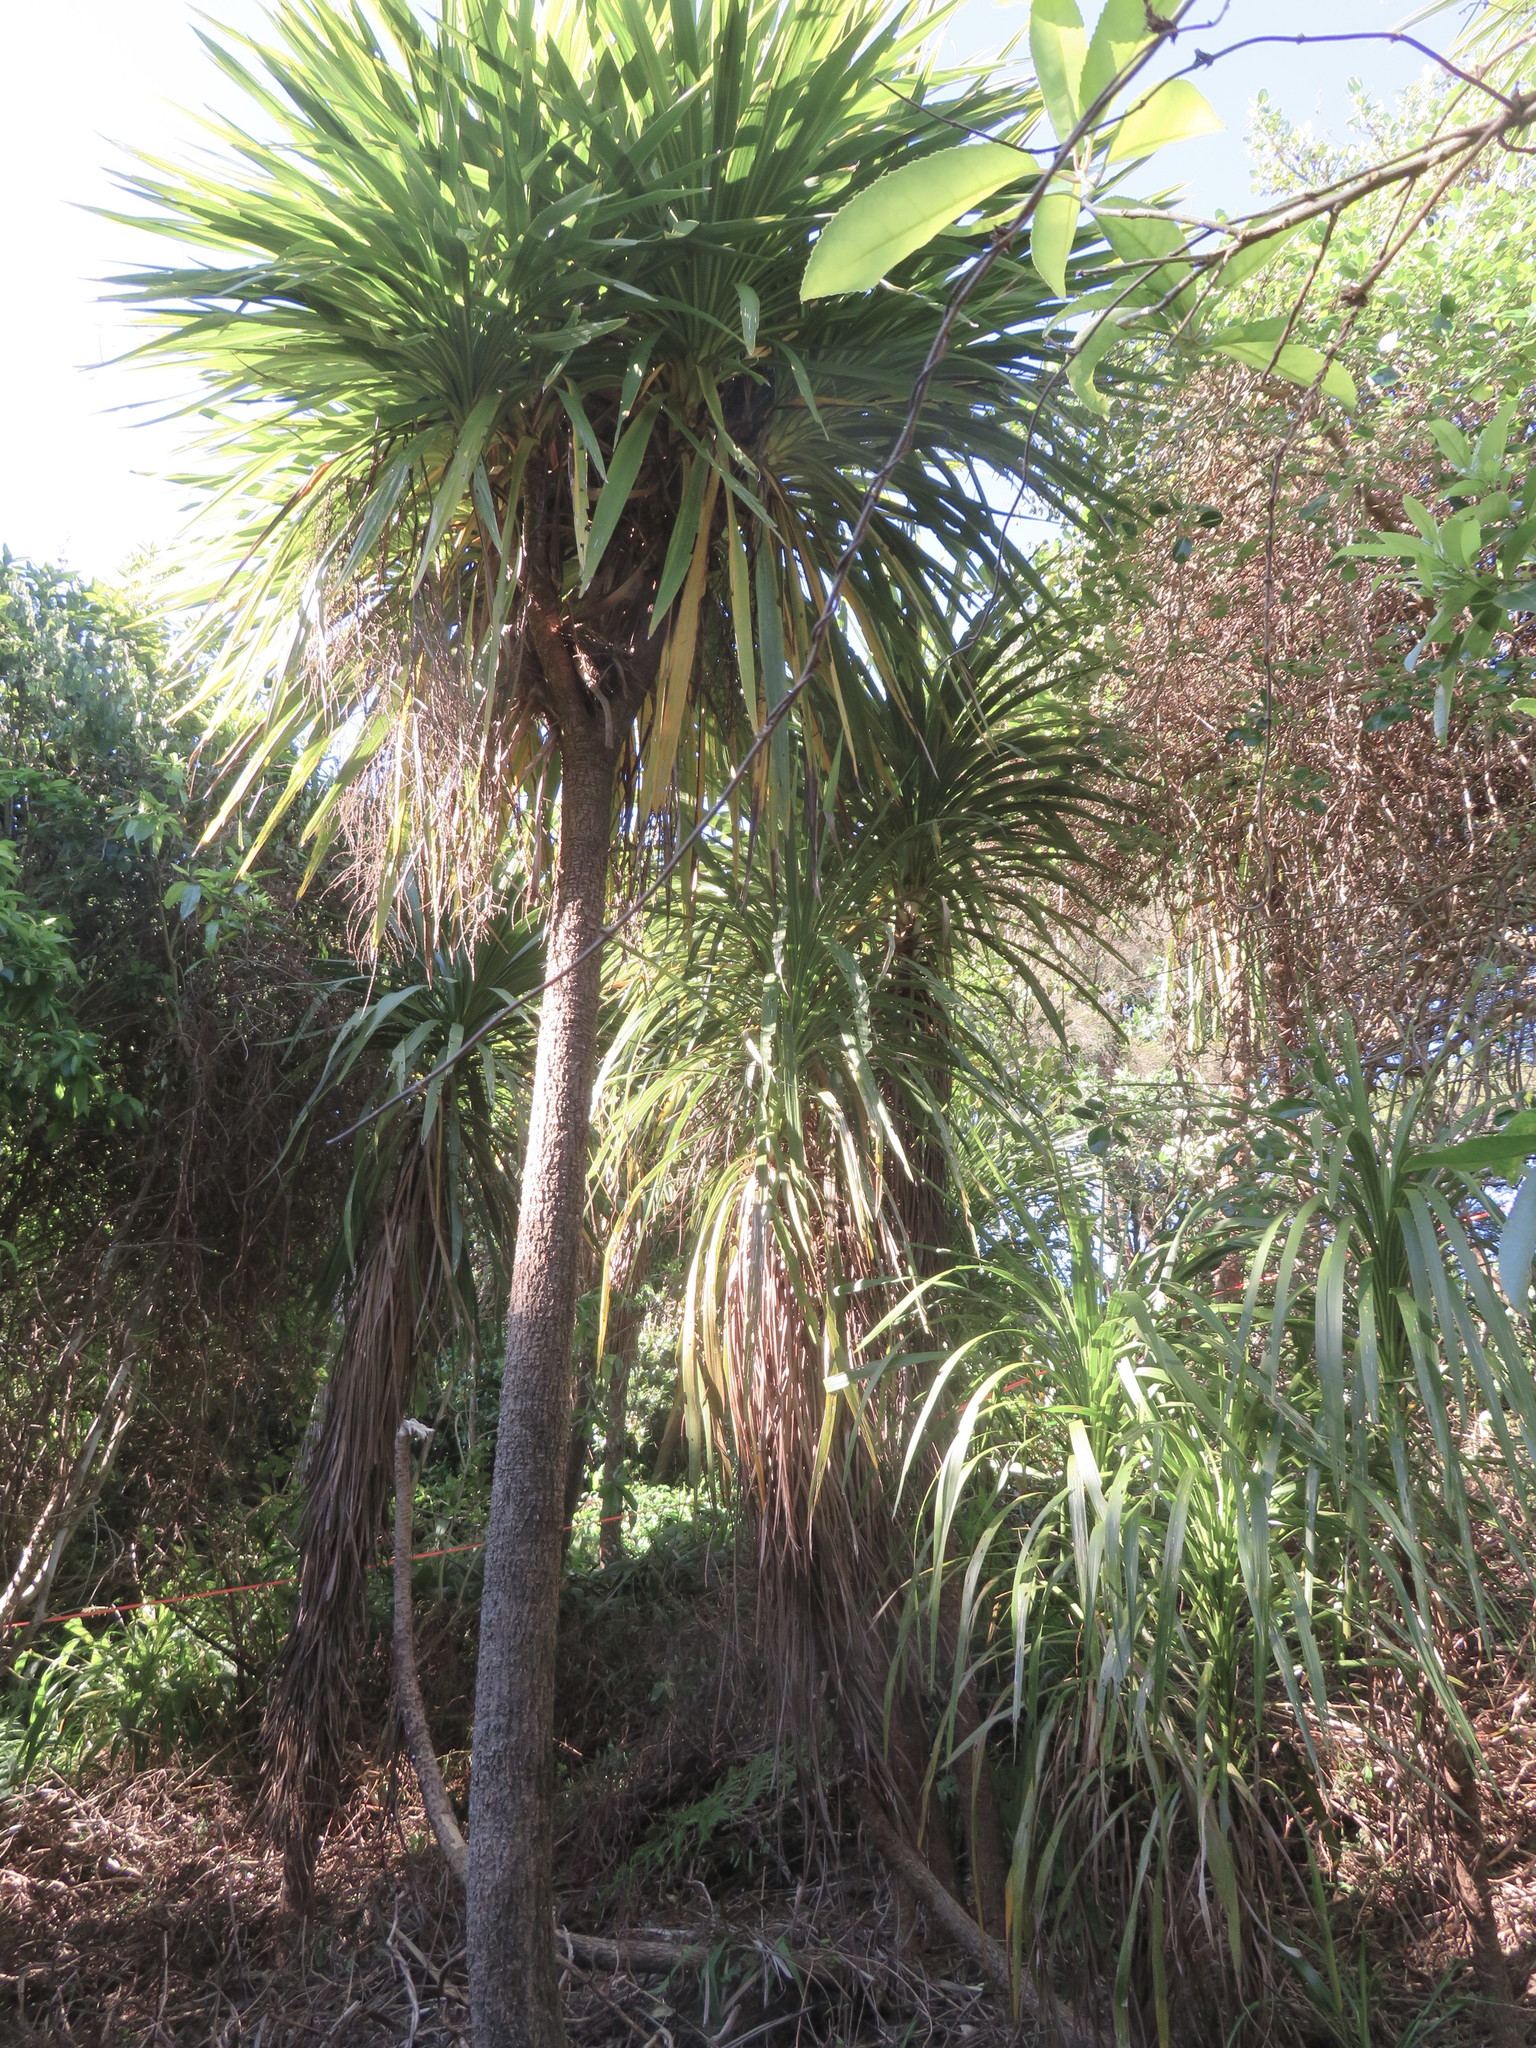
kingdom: Plantae
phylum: Tracheophyta
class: Liliopsida
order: Asparagales
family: Asparagaceae
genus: Cordyline
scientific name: Cordyline australis
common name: Cabbage-palm
